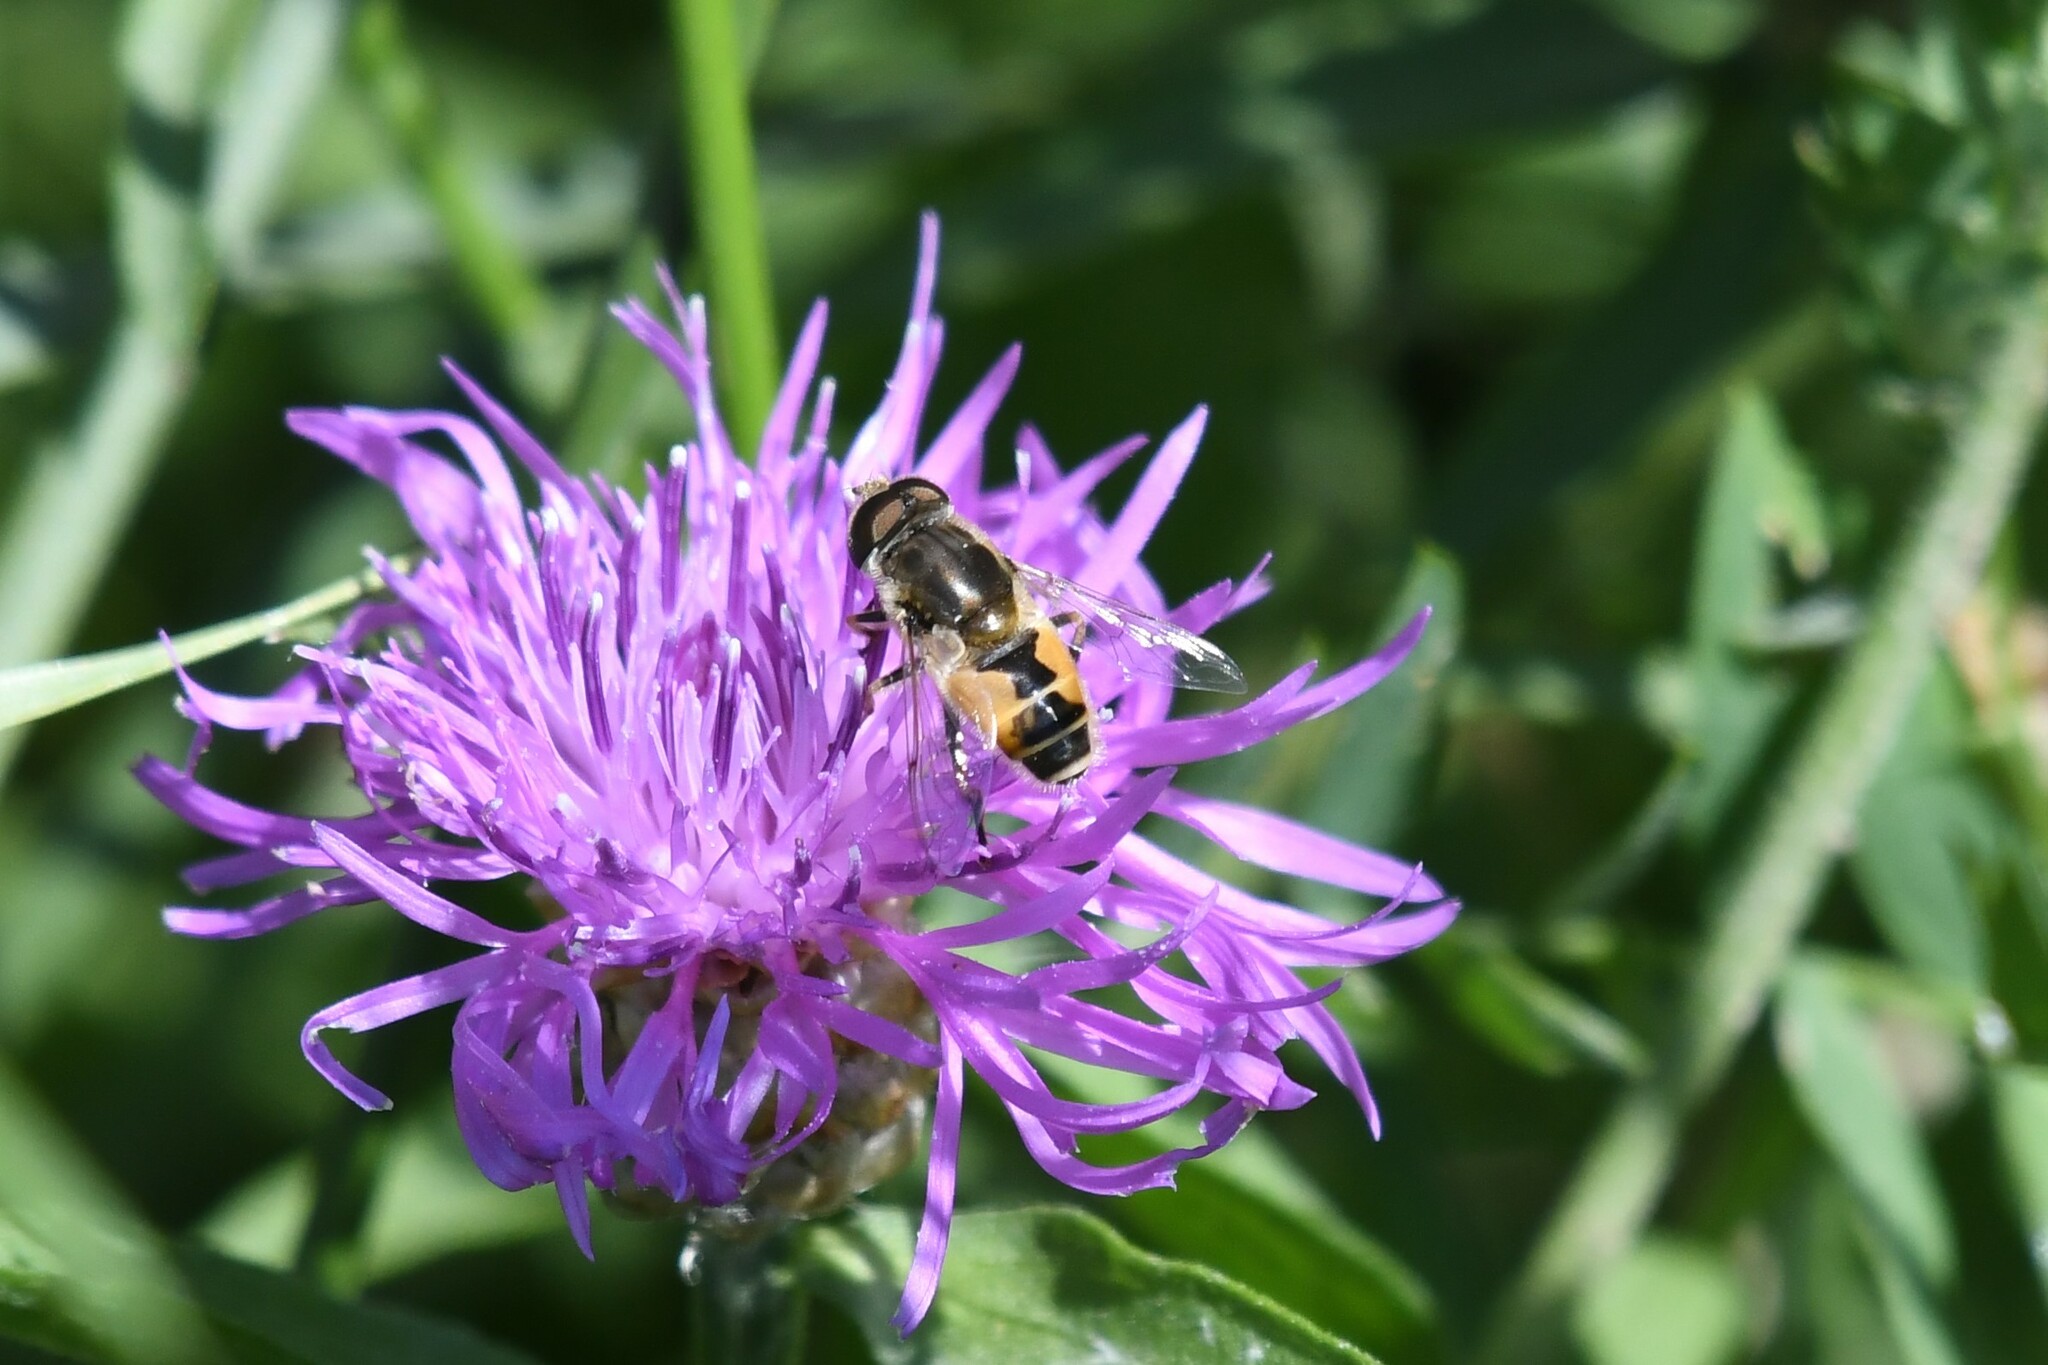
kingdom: Animalia
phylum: Arthropoda
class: Insecta
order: Diptera
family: Syrphidae
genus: Eristalis
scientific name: Eristalis arbustorum
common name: Hover fly
